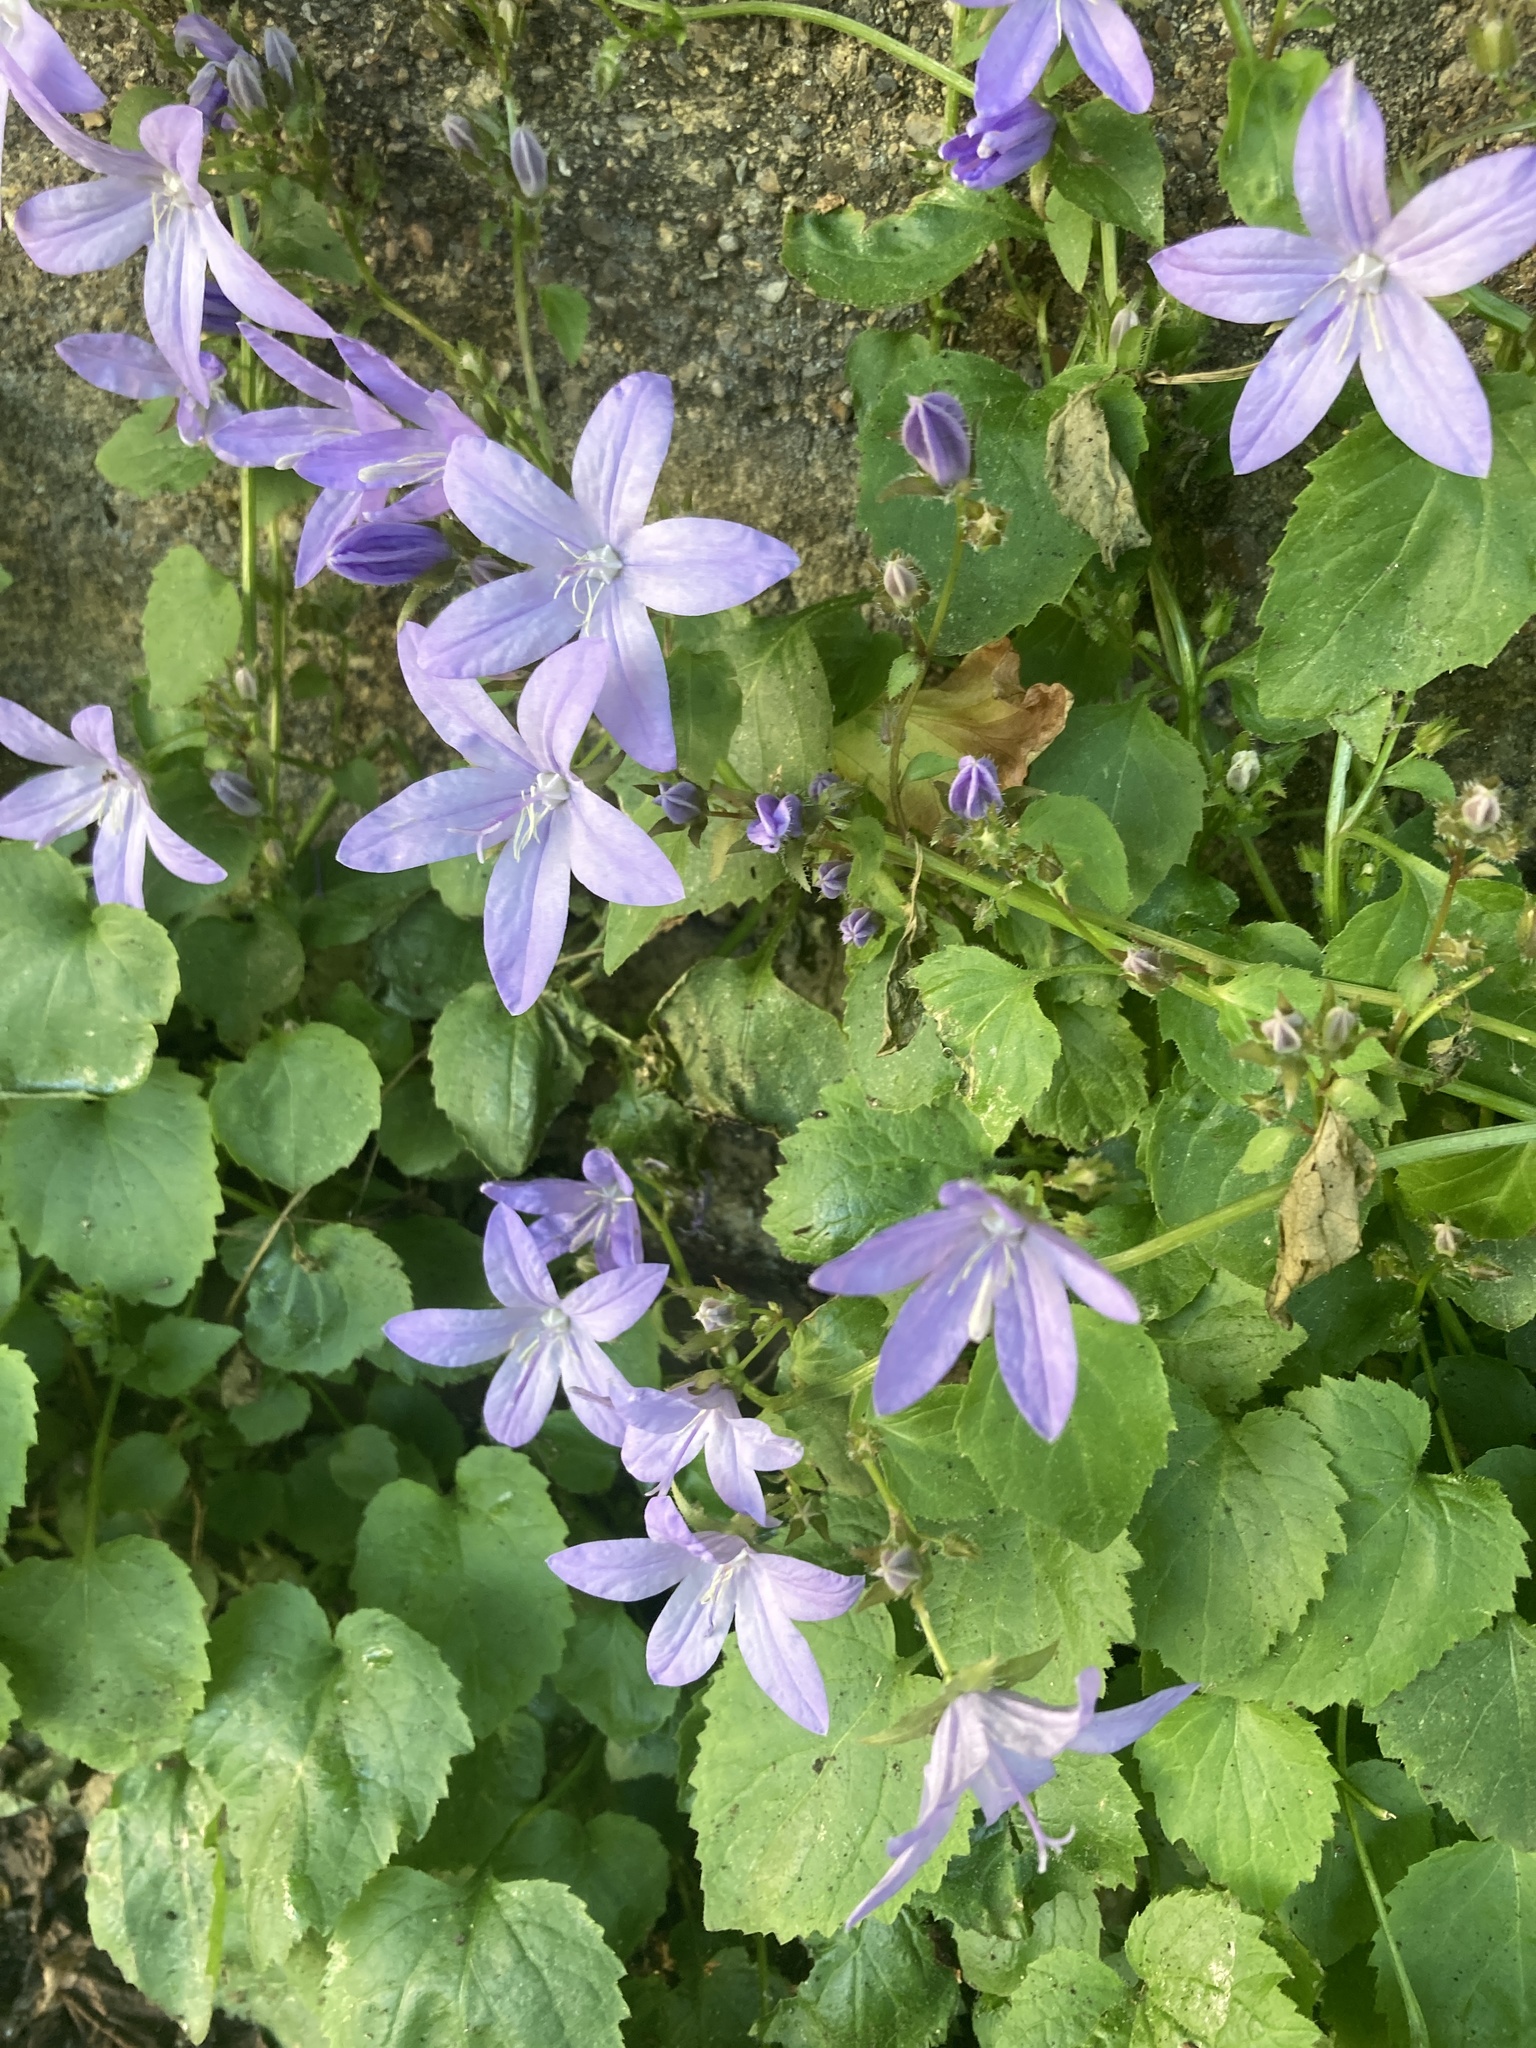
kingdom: Plantae
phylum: Tracheophyta
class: Magnoliopsida
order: Asterales
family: Campanulaceae
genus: Campanula
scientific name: Campanula poscharskyana
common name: Trailing bellflower
